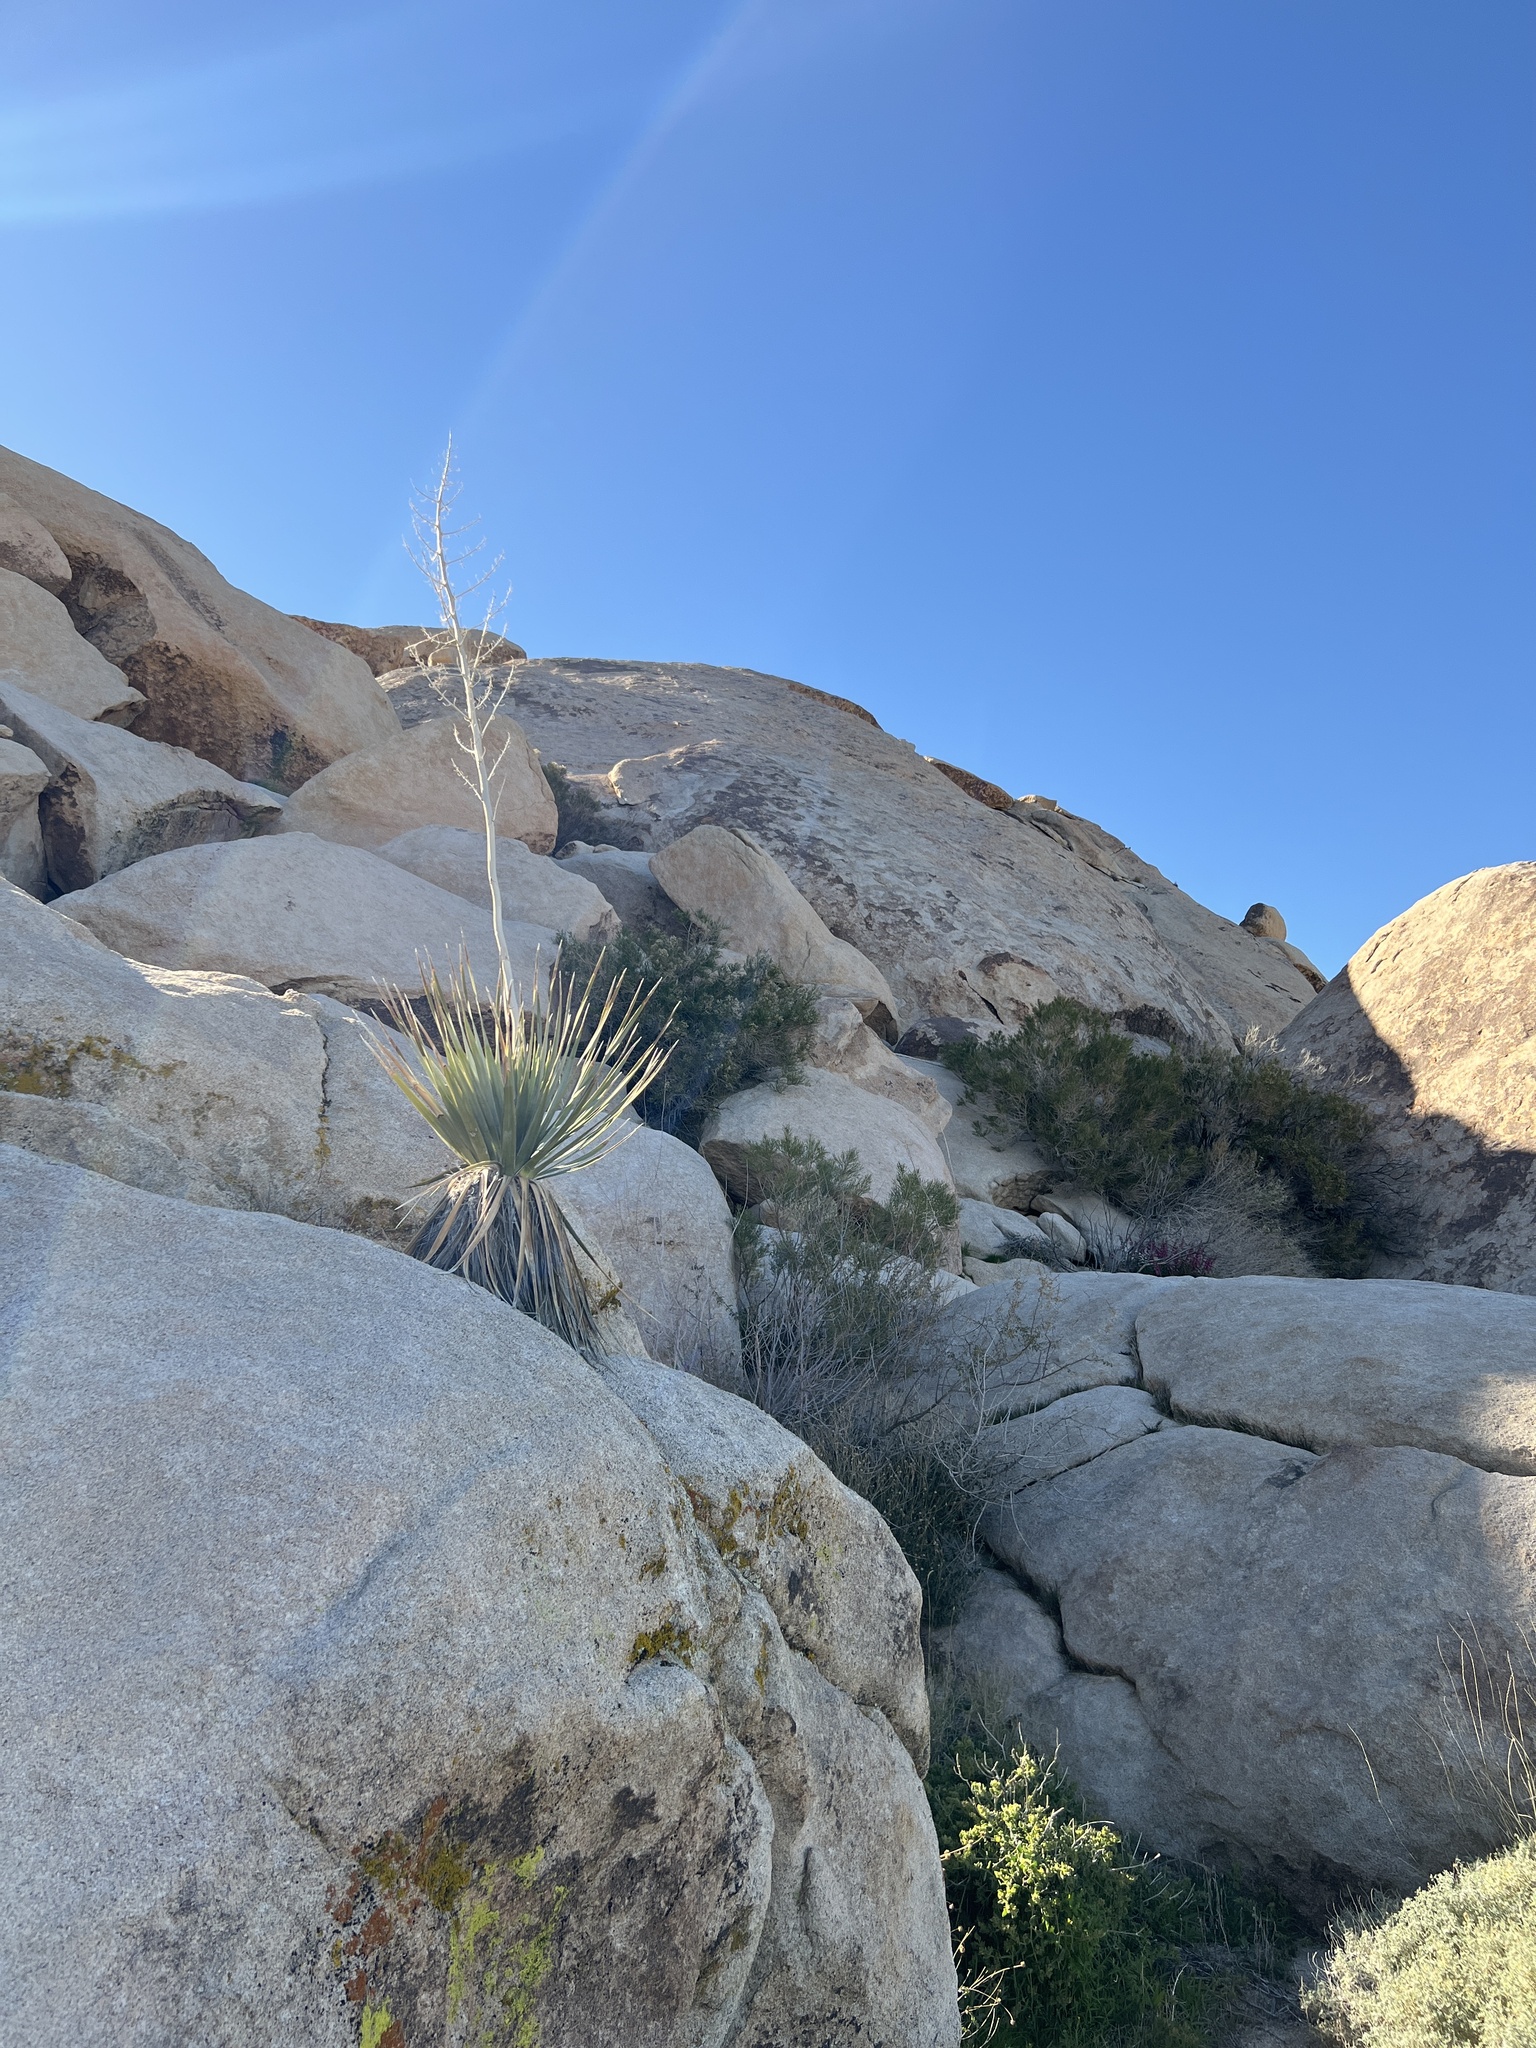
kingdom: Plantae
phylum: Tracheophyta
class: Liliopsida
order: Asparagales
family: Asparagaceae
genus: Nolina
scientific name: Nolina bigelovii
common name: Bigelow bear-grass
